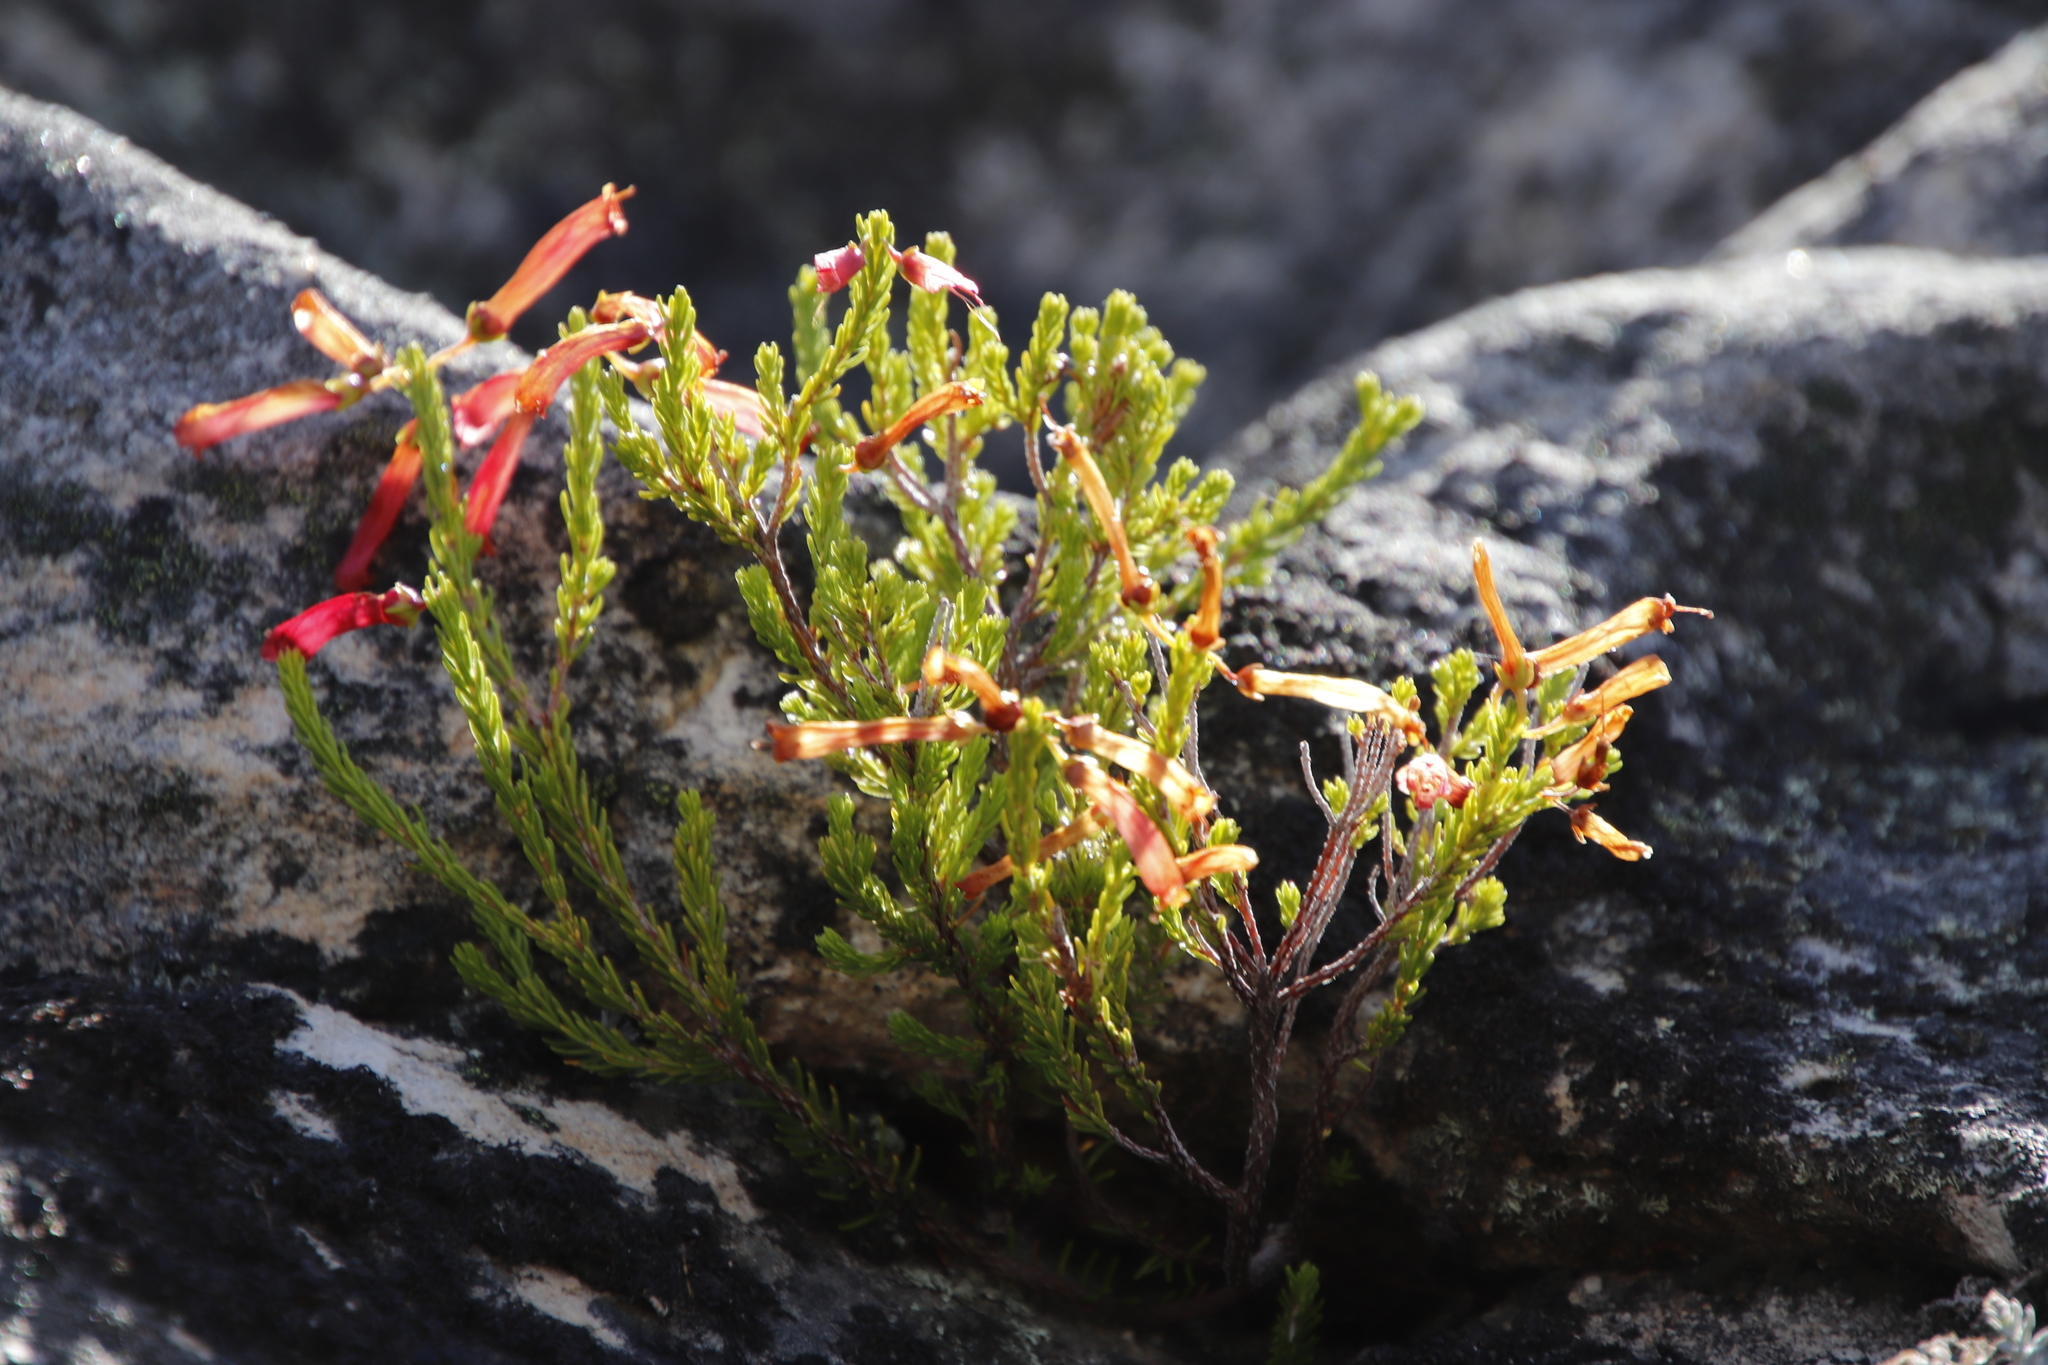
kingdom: Plantae
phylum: Tracheophyta
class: Magnoliopsida
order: Ericales
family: Ericaceae
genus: Erica
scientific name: Erica haematosiphon
